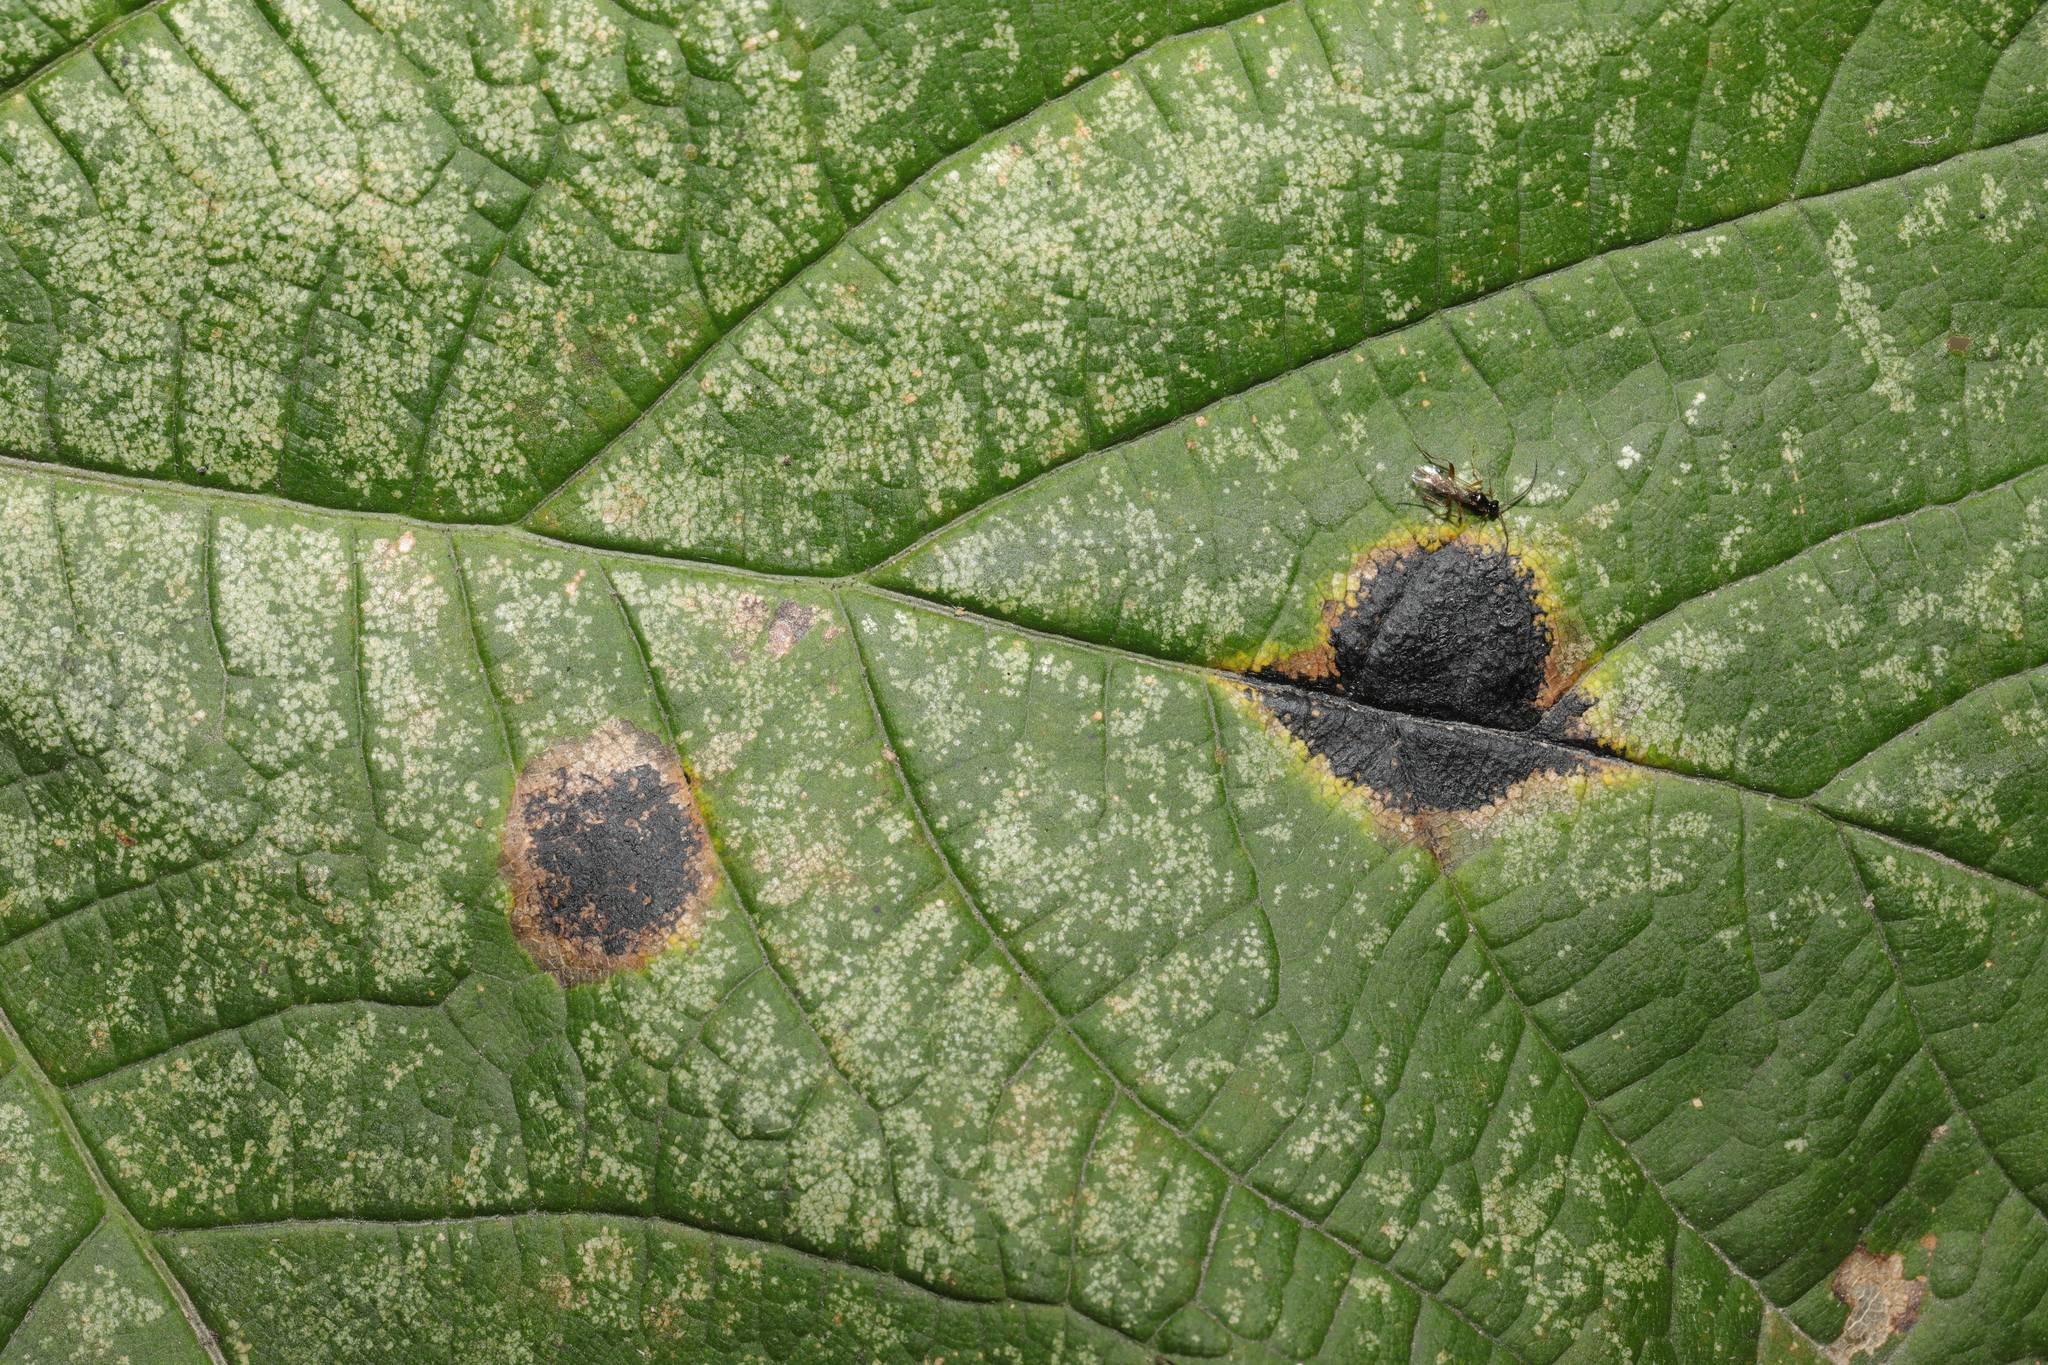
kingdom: Fungi
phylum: Ascomycota
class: Leotiomycetes
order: Rhytismatales
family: Rhytismataceae
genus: Rhytisma
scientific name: Rhytisma acerinum
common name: European tar spot
